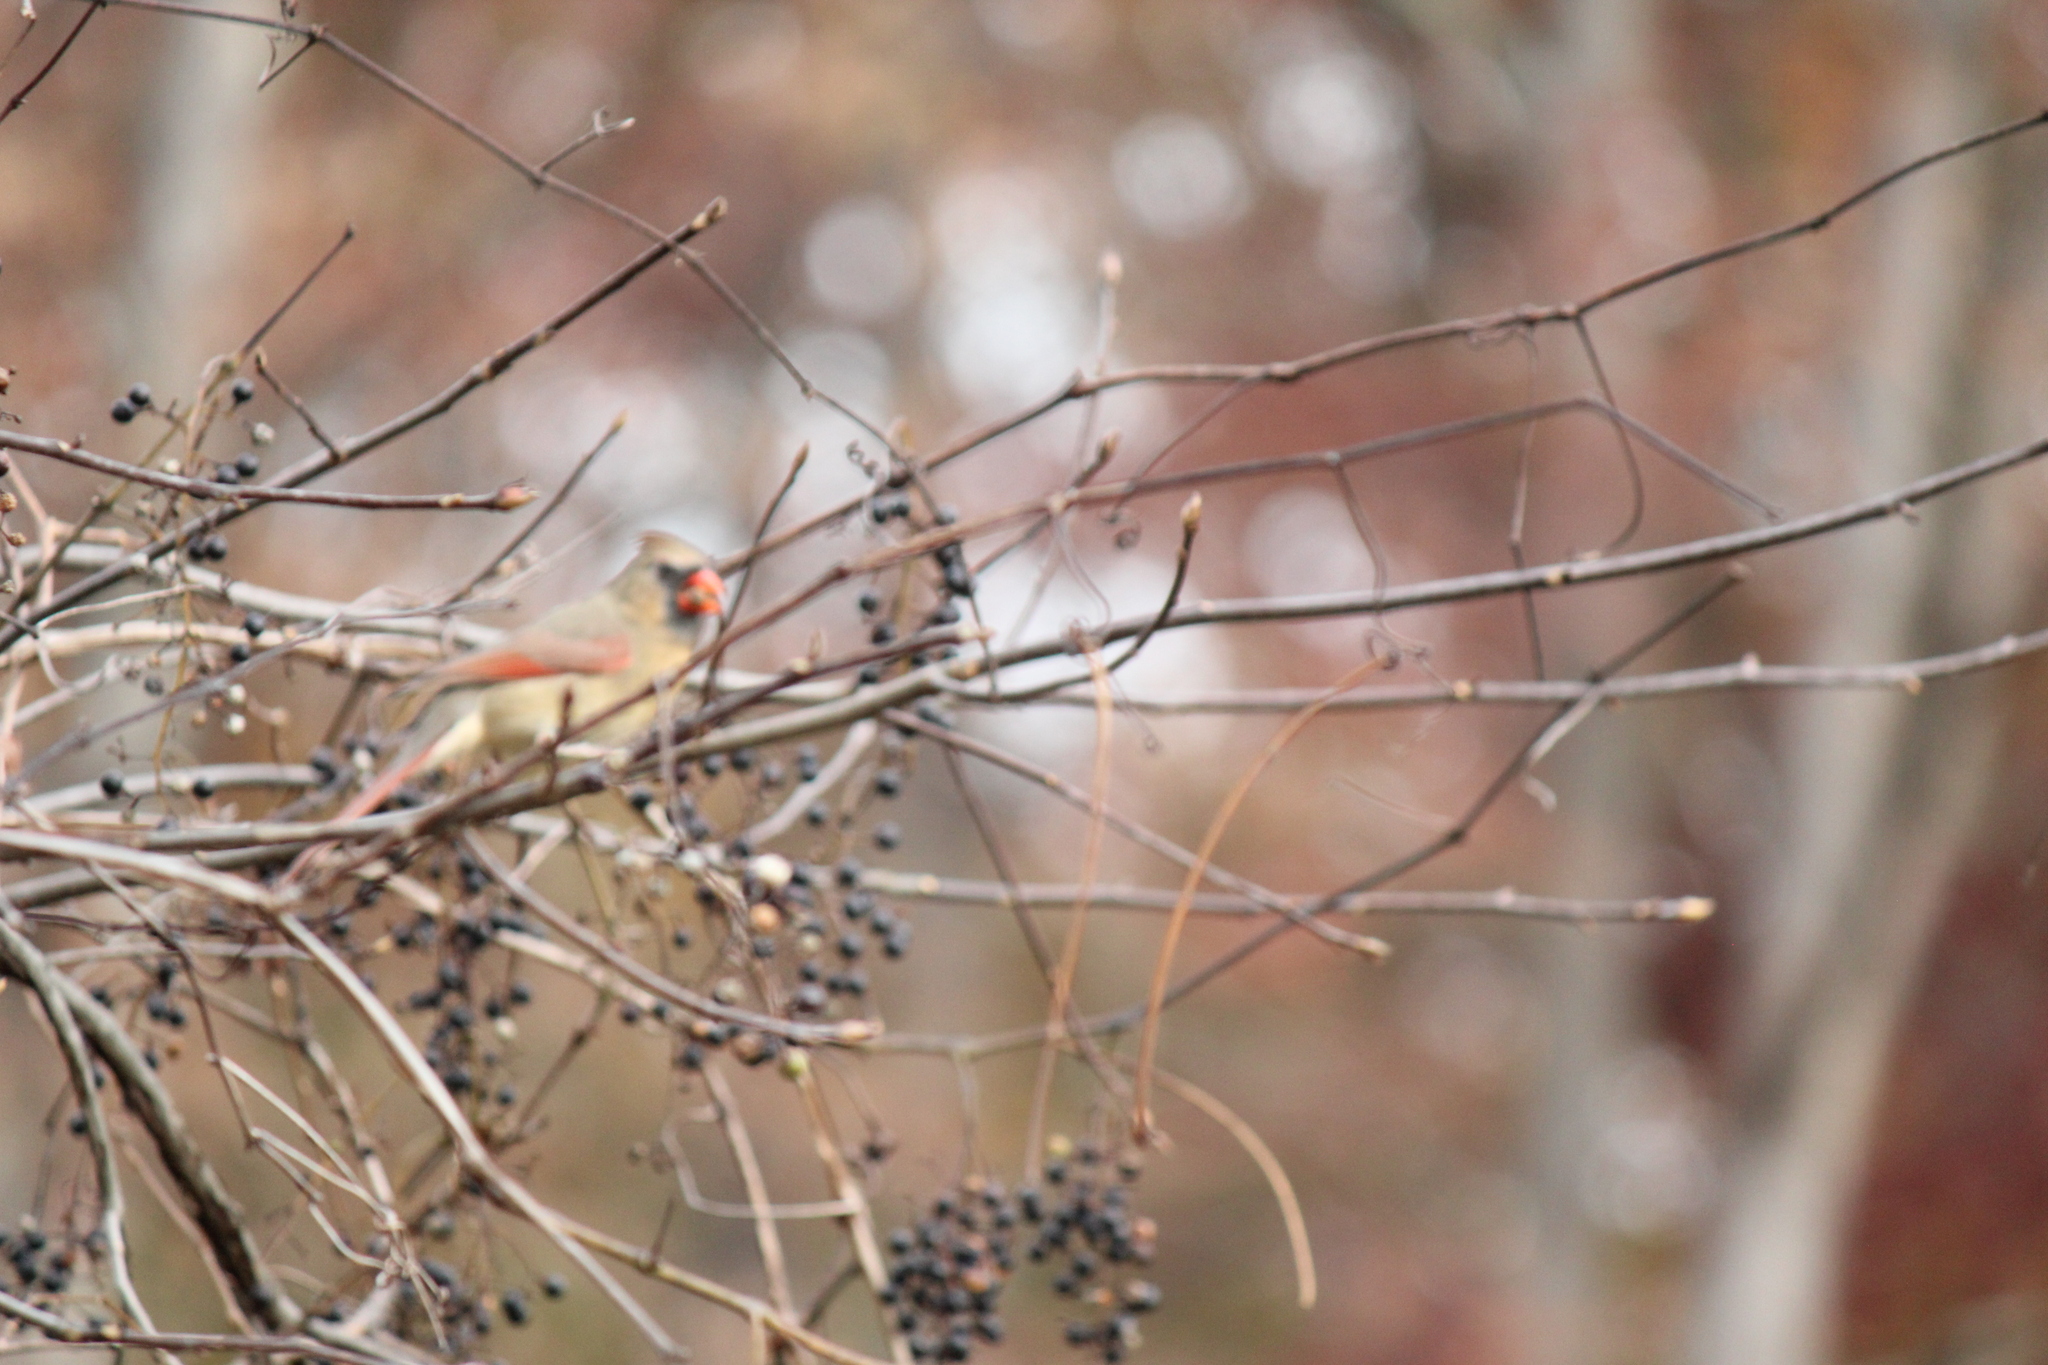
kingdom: Animalia
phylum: Chordata
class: Aves
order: Passeriformes
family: Cardinalidae
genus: Cardinalis
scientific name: Cardinalis cardinalis
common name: Northern cardinal
